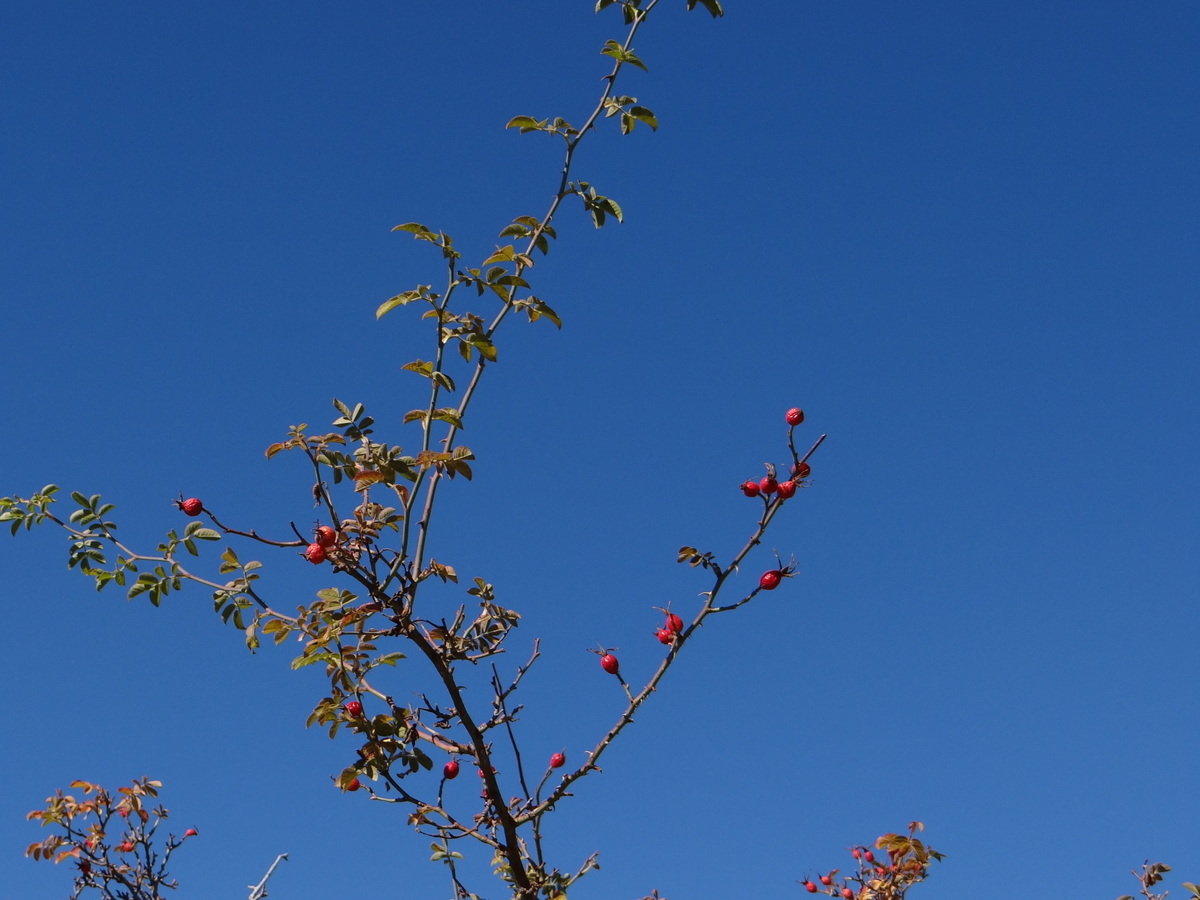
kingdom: Plantae
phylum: Tracheophyta
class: Magnoliopsida
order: Rosales
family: Rosaceae
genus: Rosa
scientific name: Rosa pulverulenta
